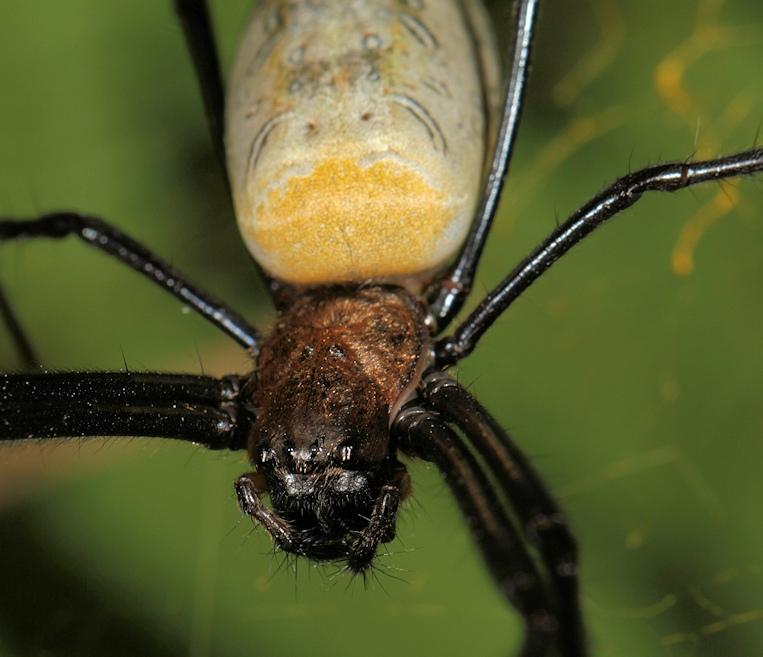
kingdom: Animalia
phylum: Arthropoda
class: Arachnida
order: Araneae
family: Araneidae
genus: Trichonephila
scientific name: Trichonephila fenestrata
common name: Hairy golden orb weaver
